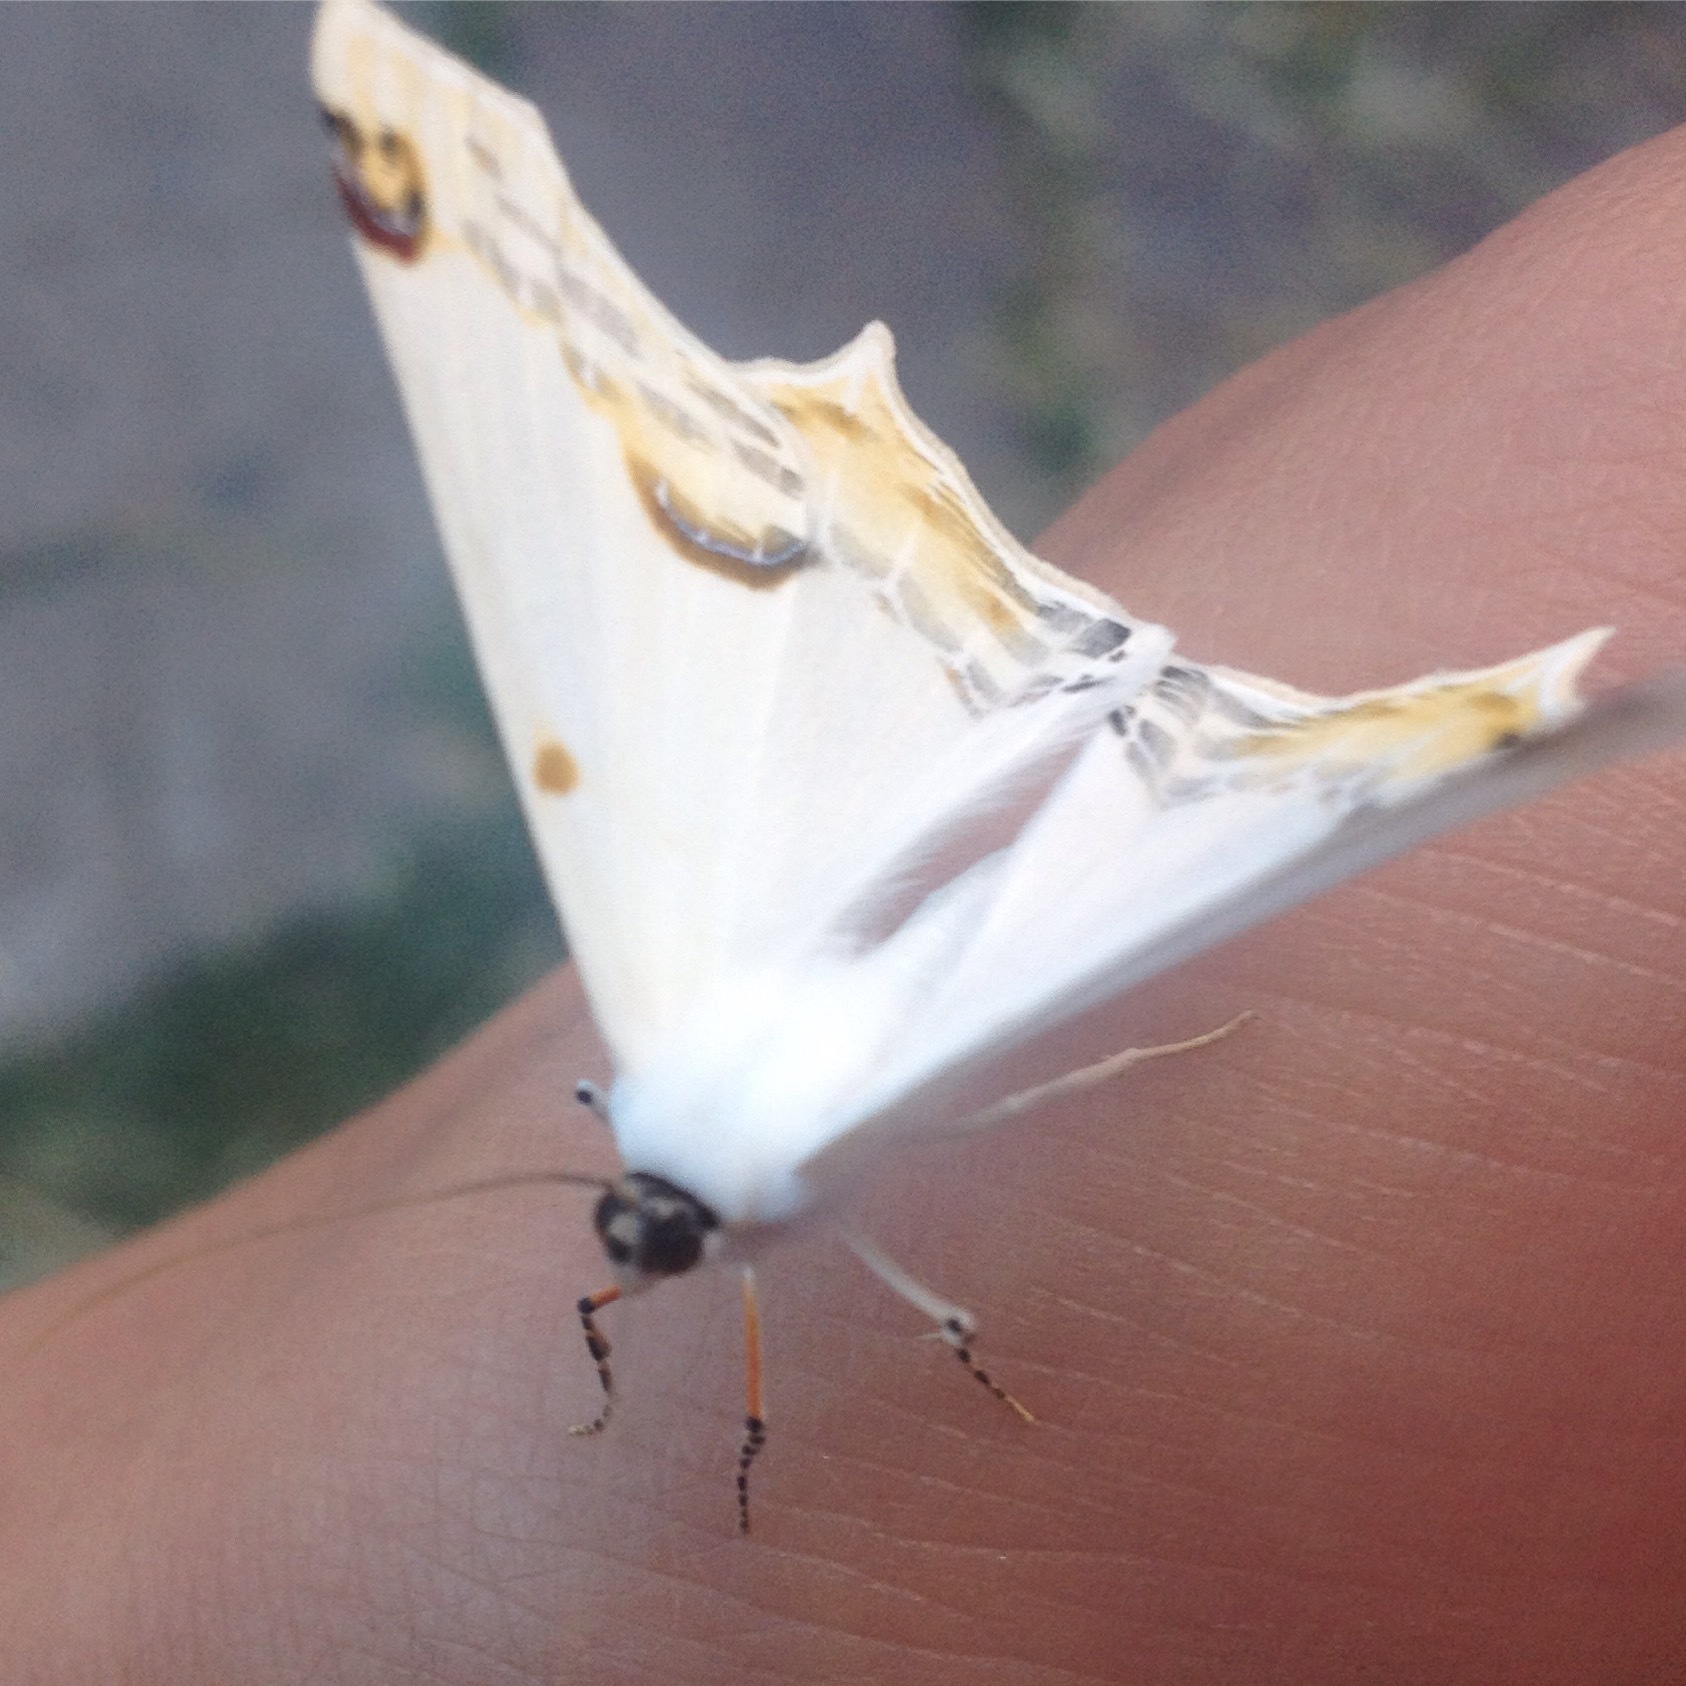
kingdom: Animalia
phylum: Arthropoda
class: Insecta
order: Lepidoptera
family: Geometridae
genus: Sericoptera
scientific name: Sericoptera mahometaria
